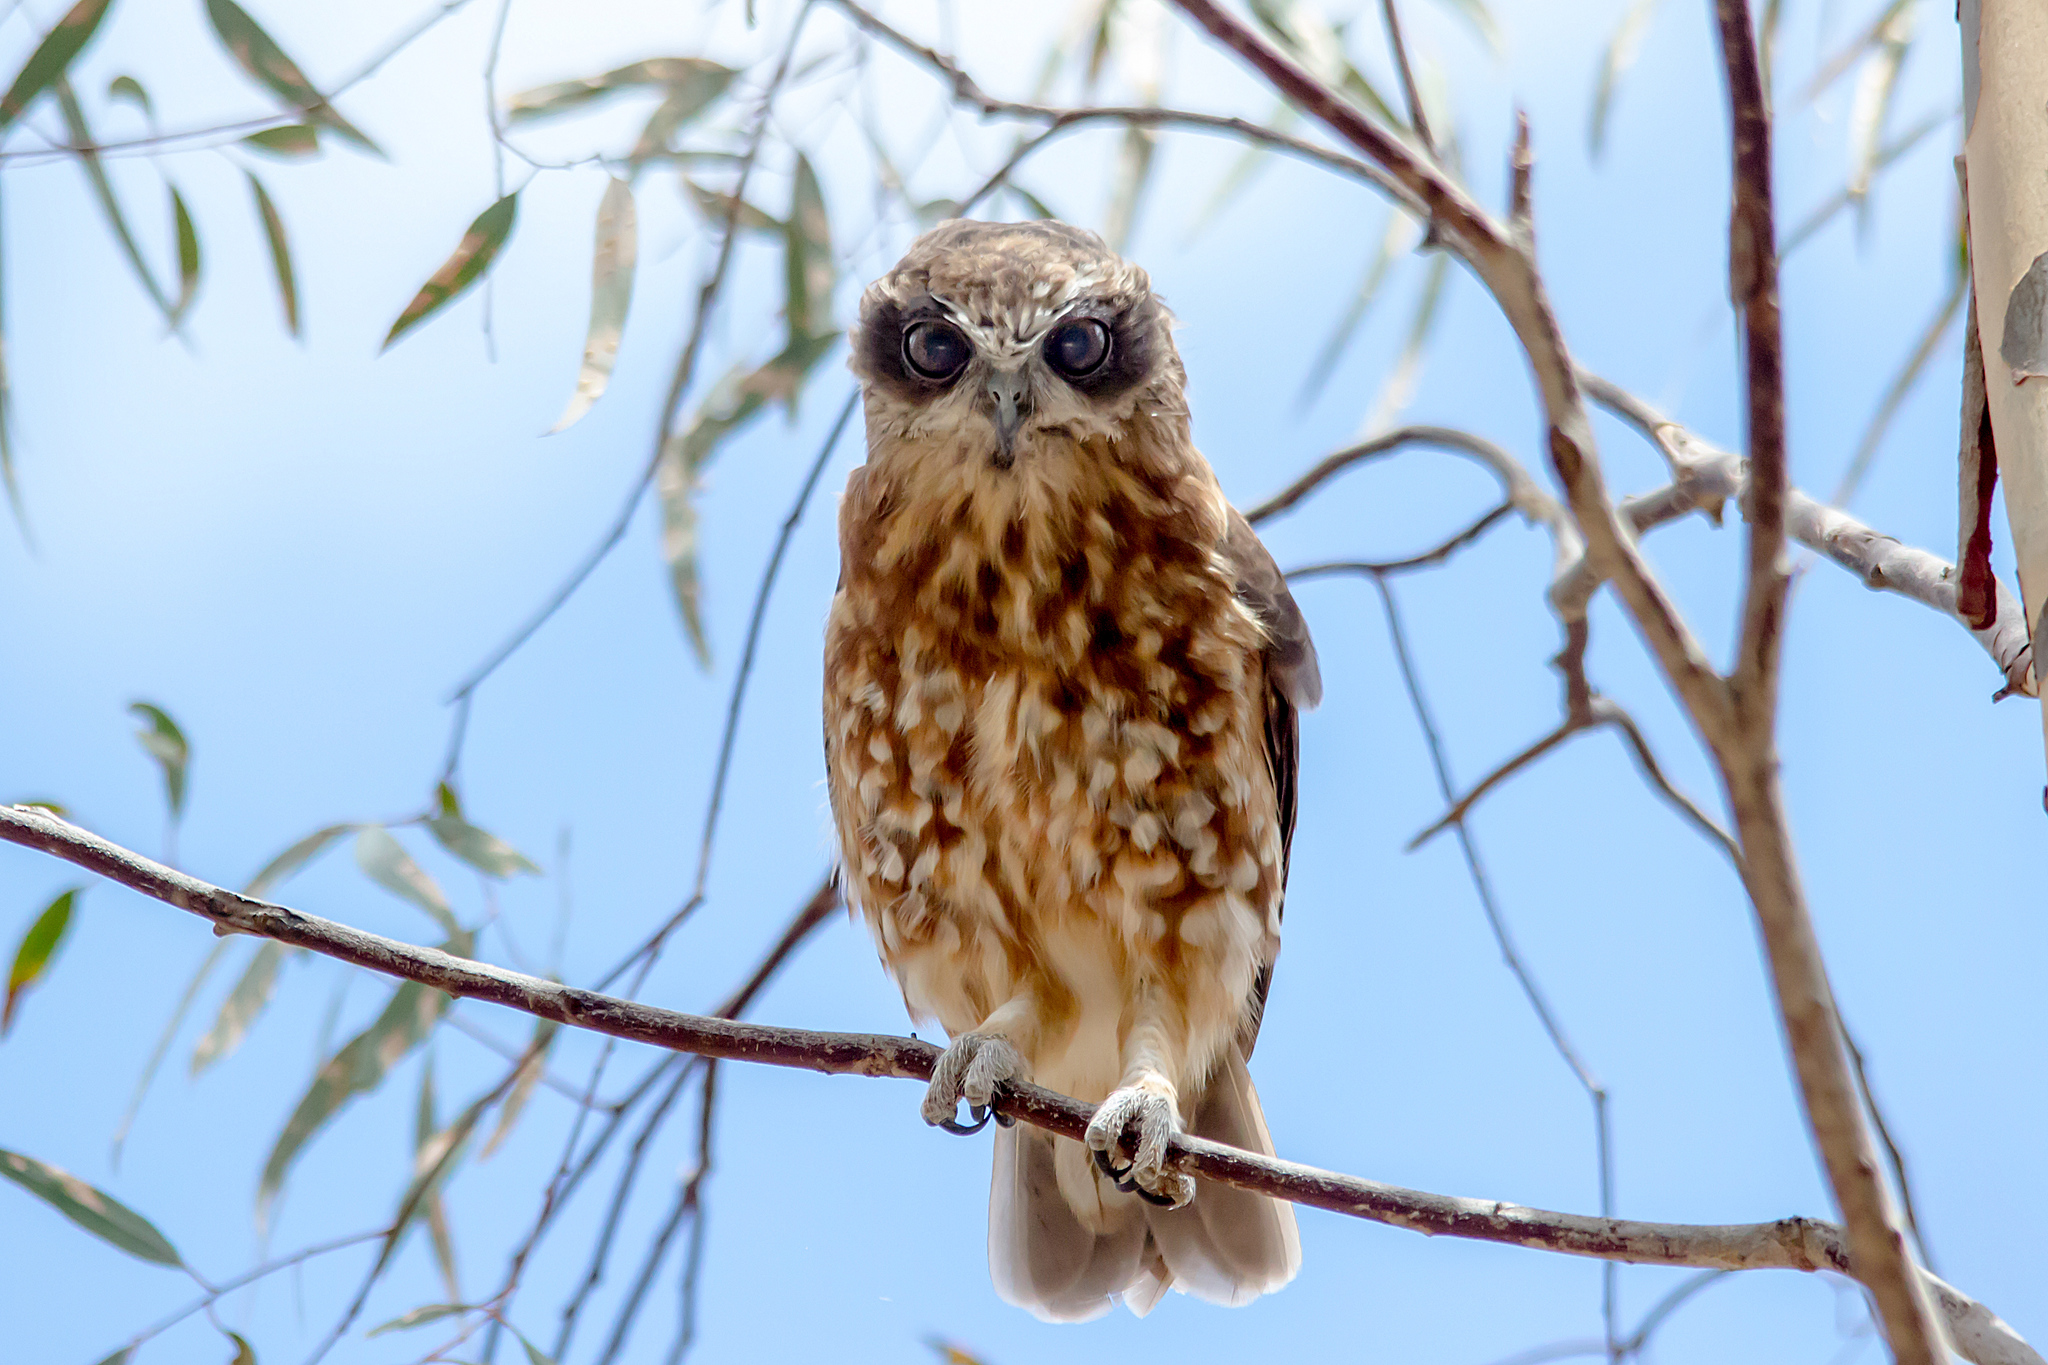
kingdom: Animalia
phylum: Chordata
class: Aves
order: Strigiformes
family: Strigidae
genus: Ninox
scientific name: Ninox boobook
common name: Southern boobook
